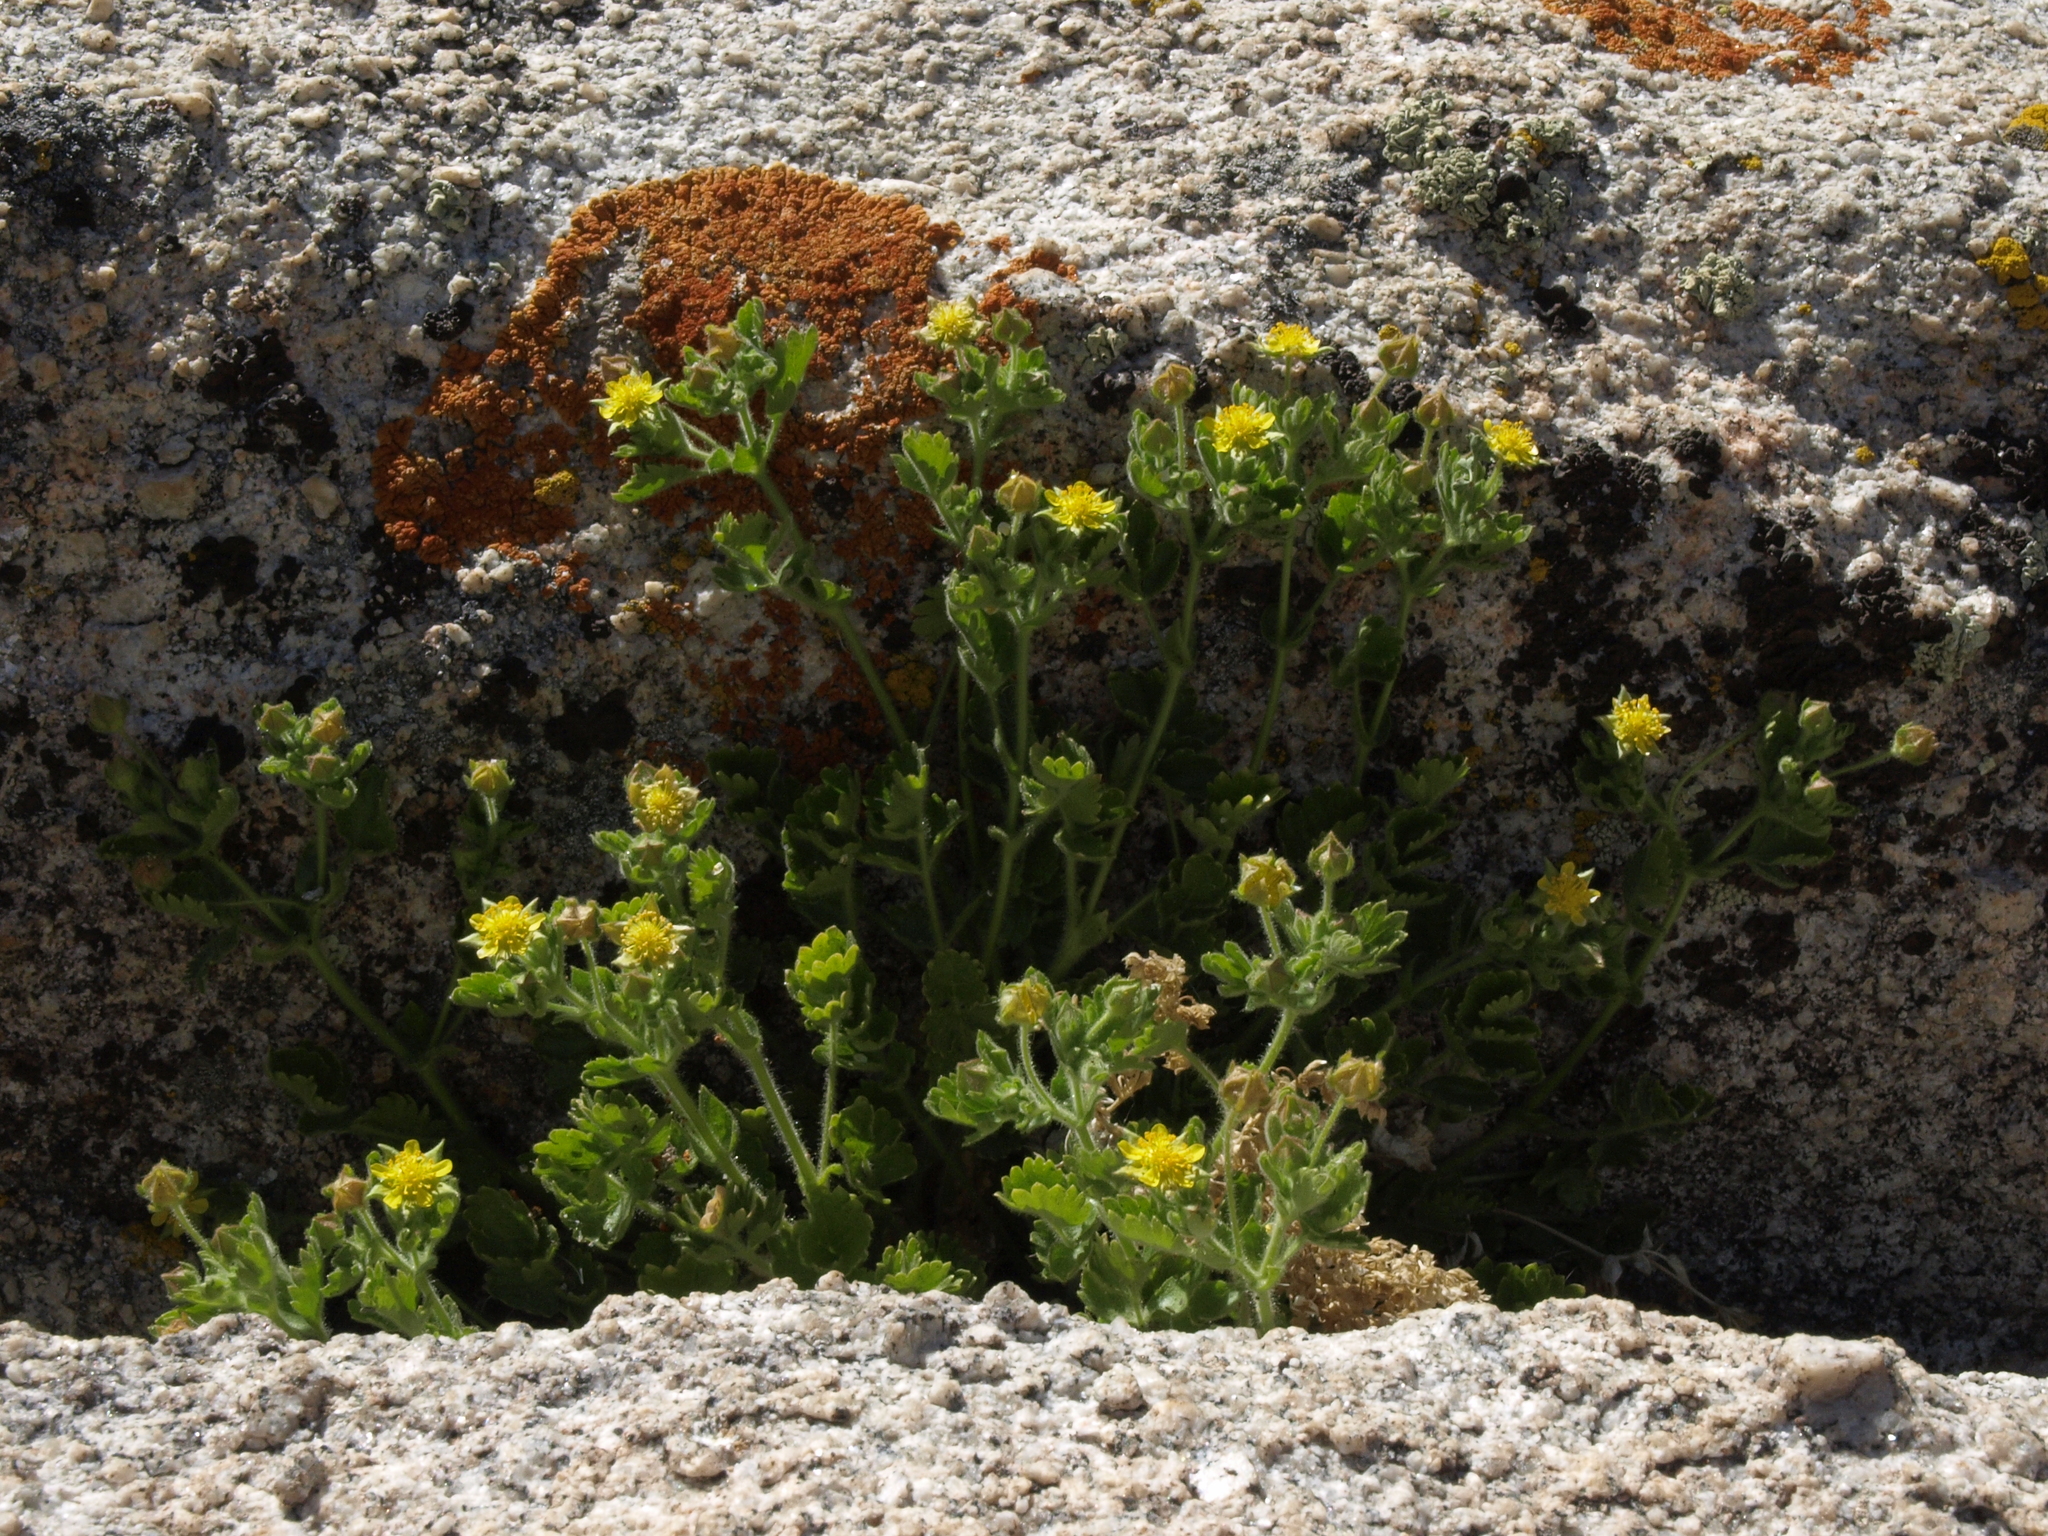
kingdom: Plantae
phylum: Tracheophyta
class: Magnoliopsida
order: Rosales
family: Rosaceae
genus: Potentilla
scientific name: Potentilla saxosa
